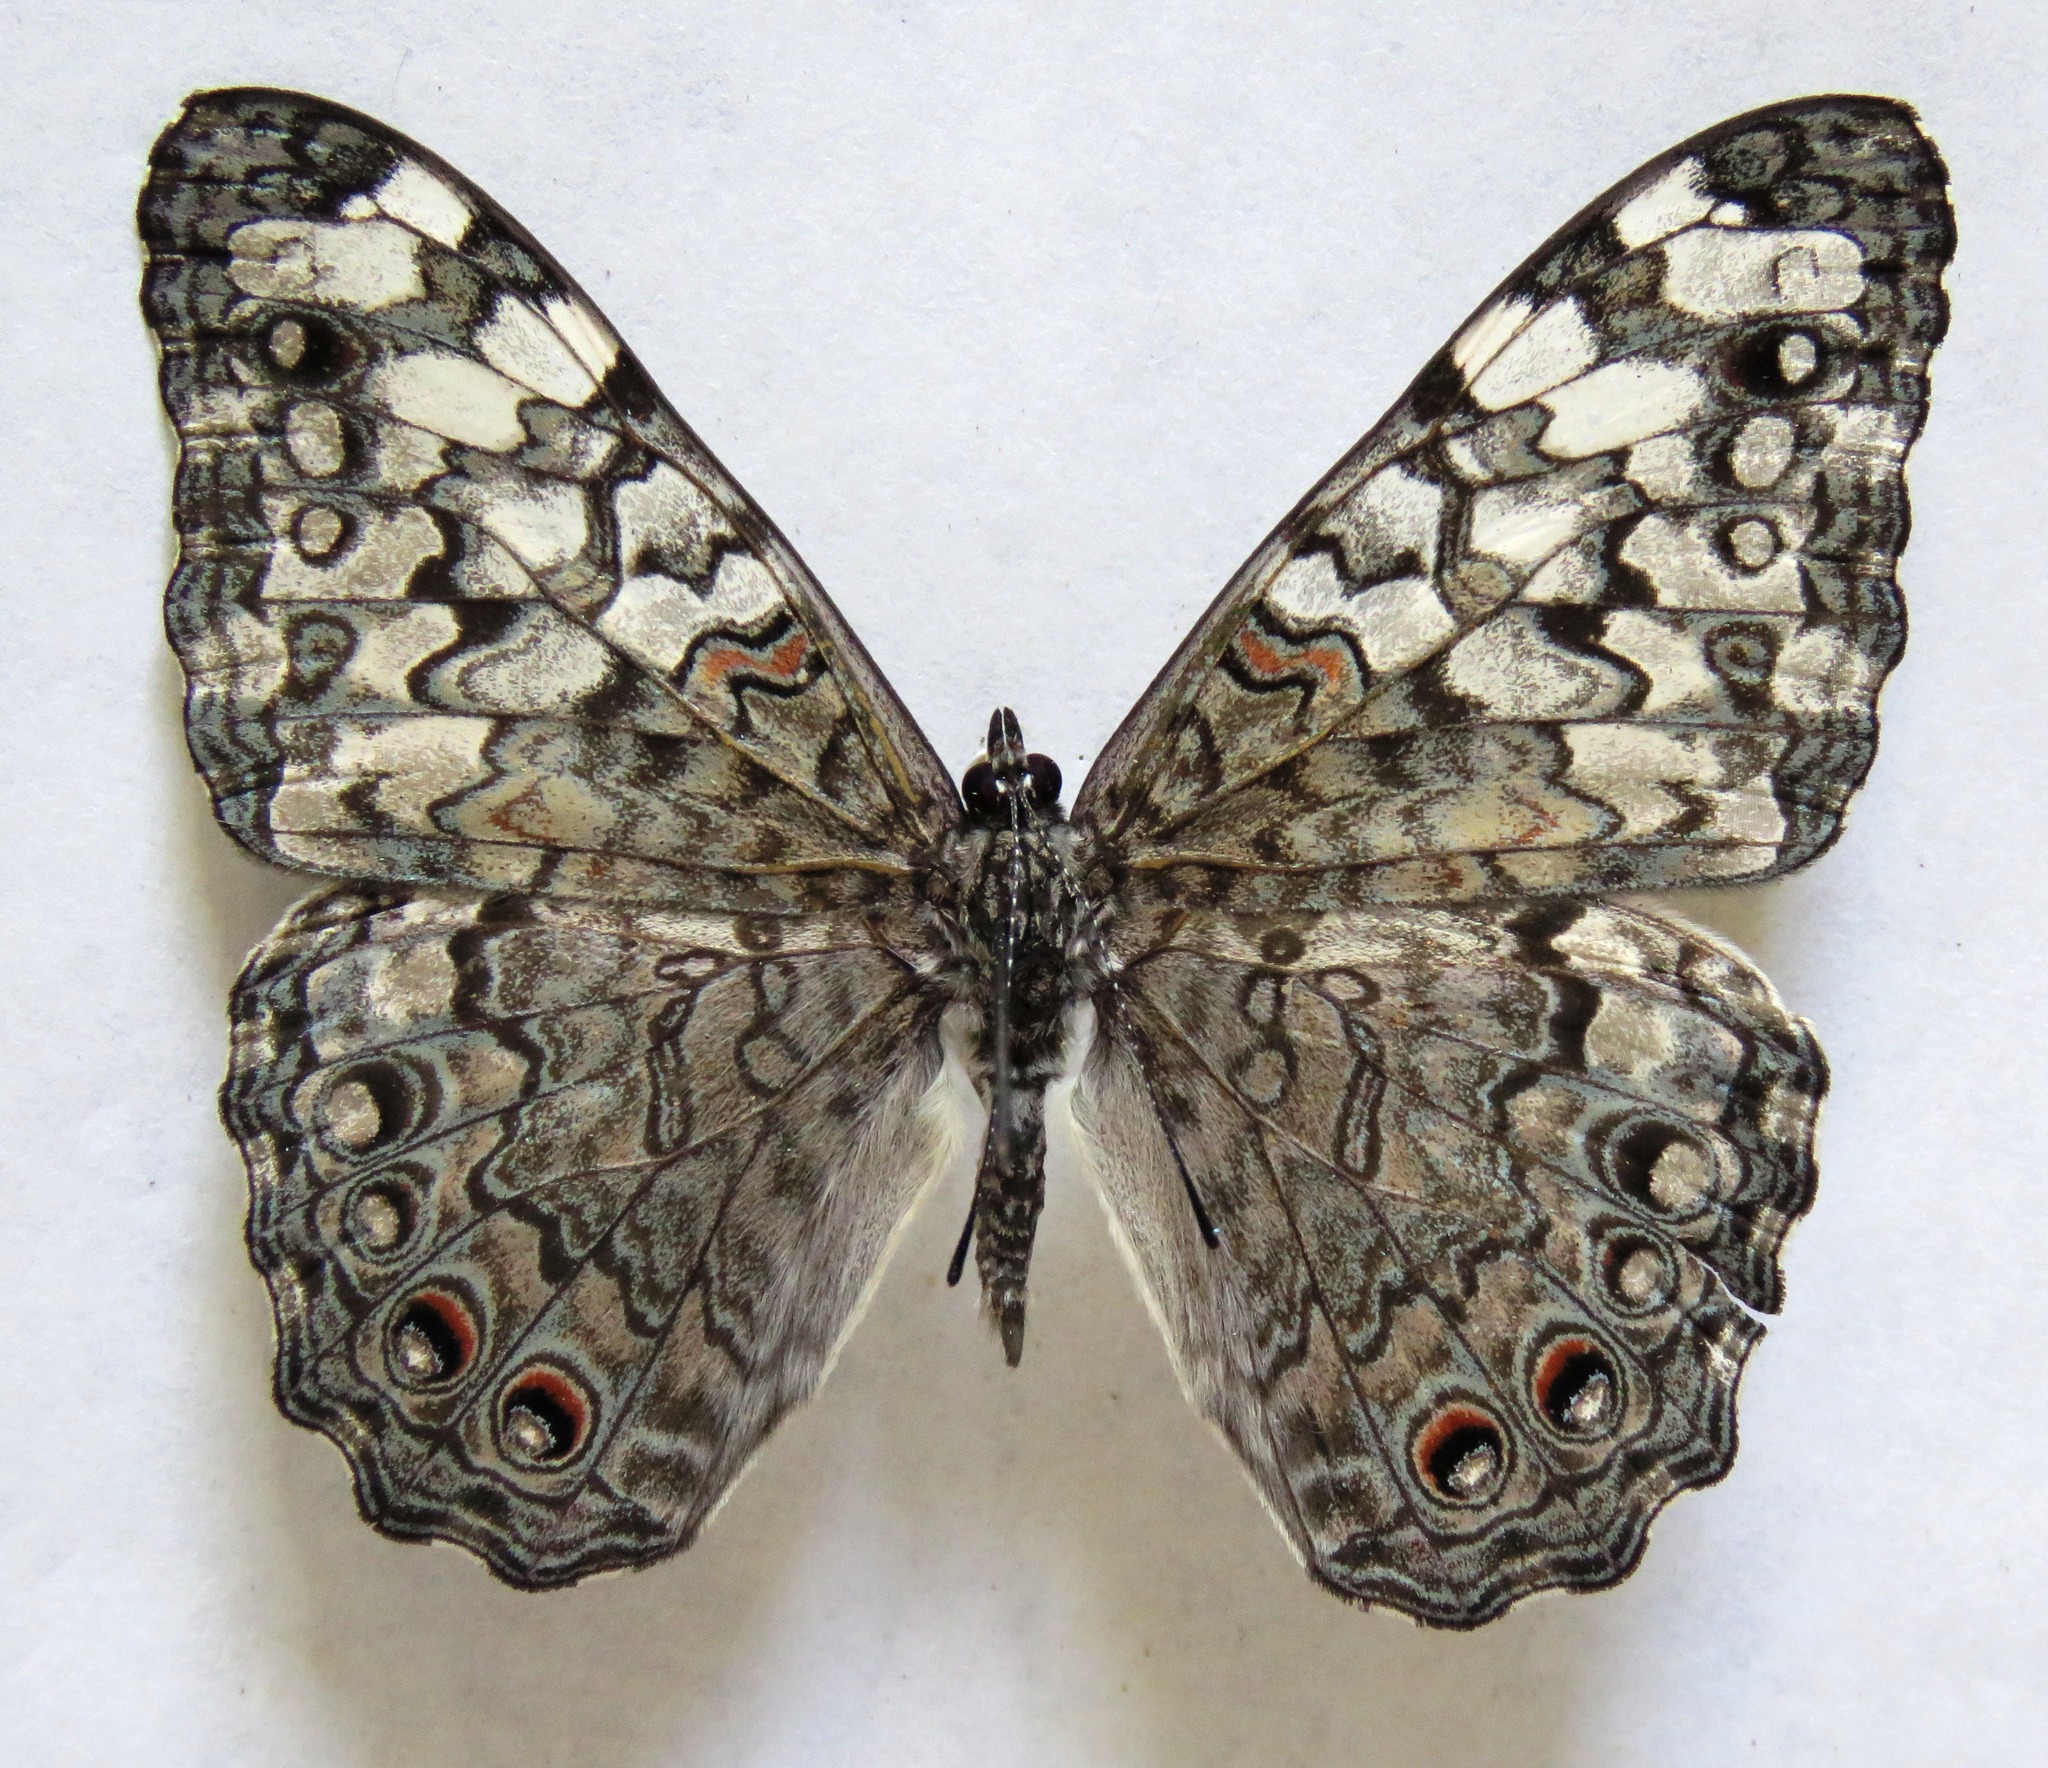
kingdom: Animalia
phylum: Arthropoda
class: Insecta
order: Lepidoptera
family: Nymphalidae
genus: Hamadryas
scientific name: Hamadryas februa
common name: Gray cracker
